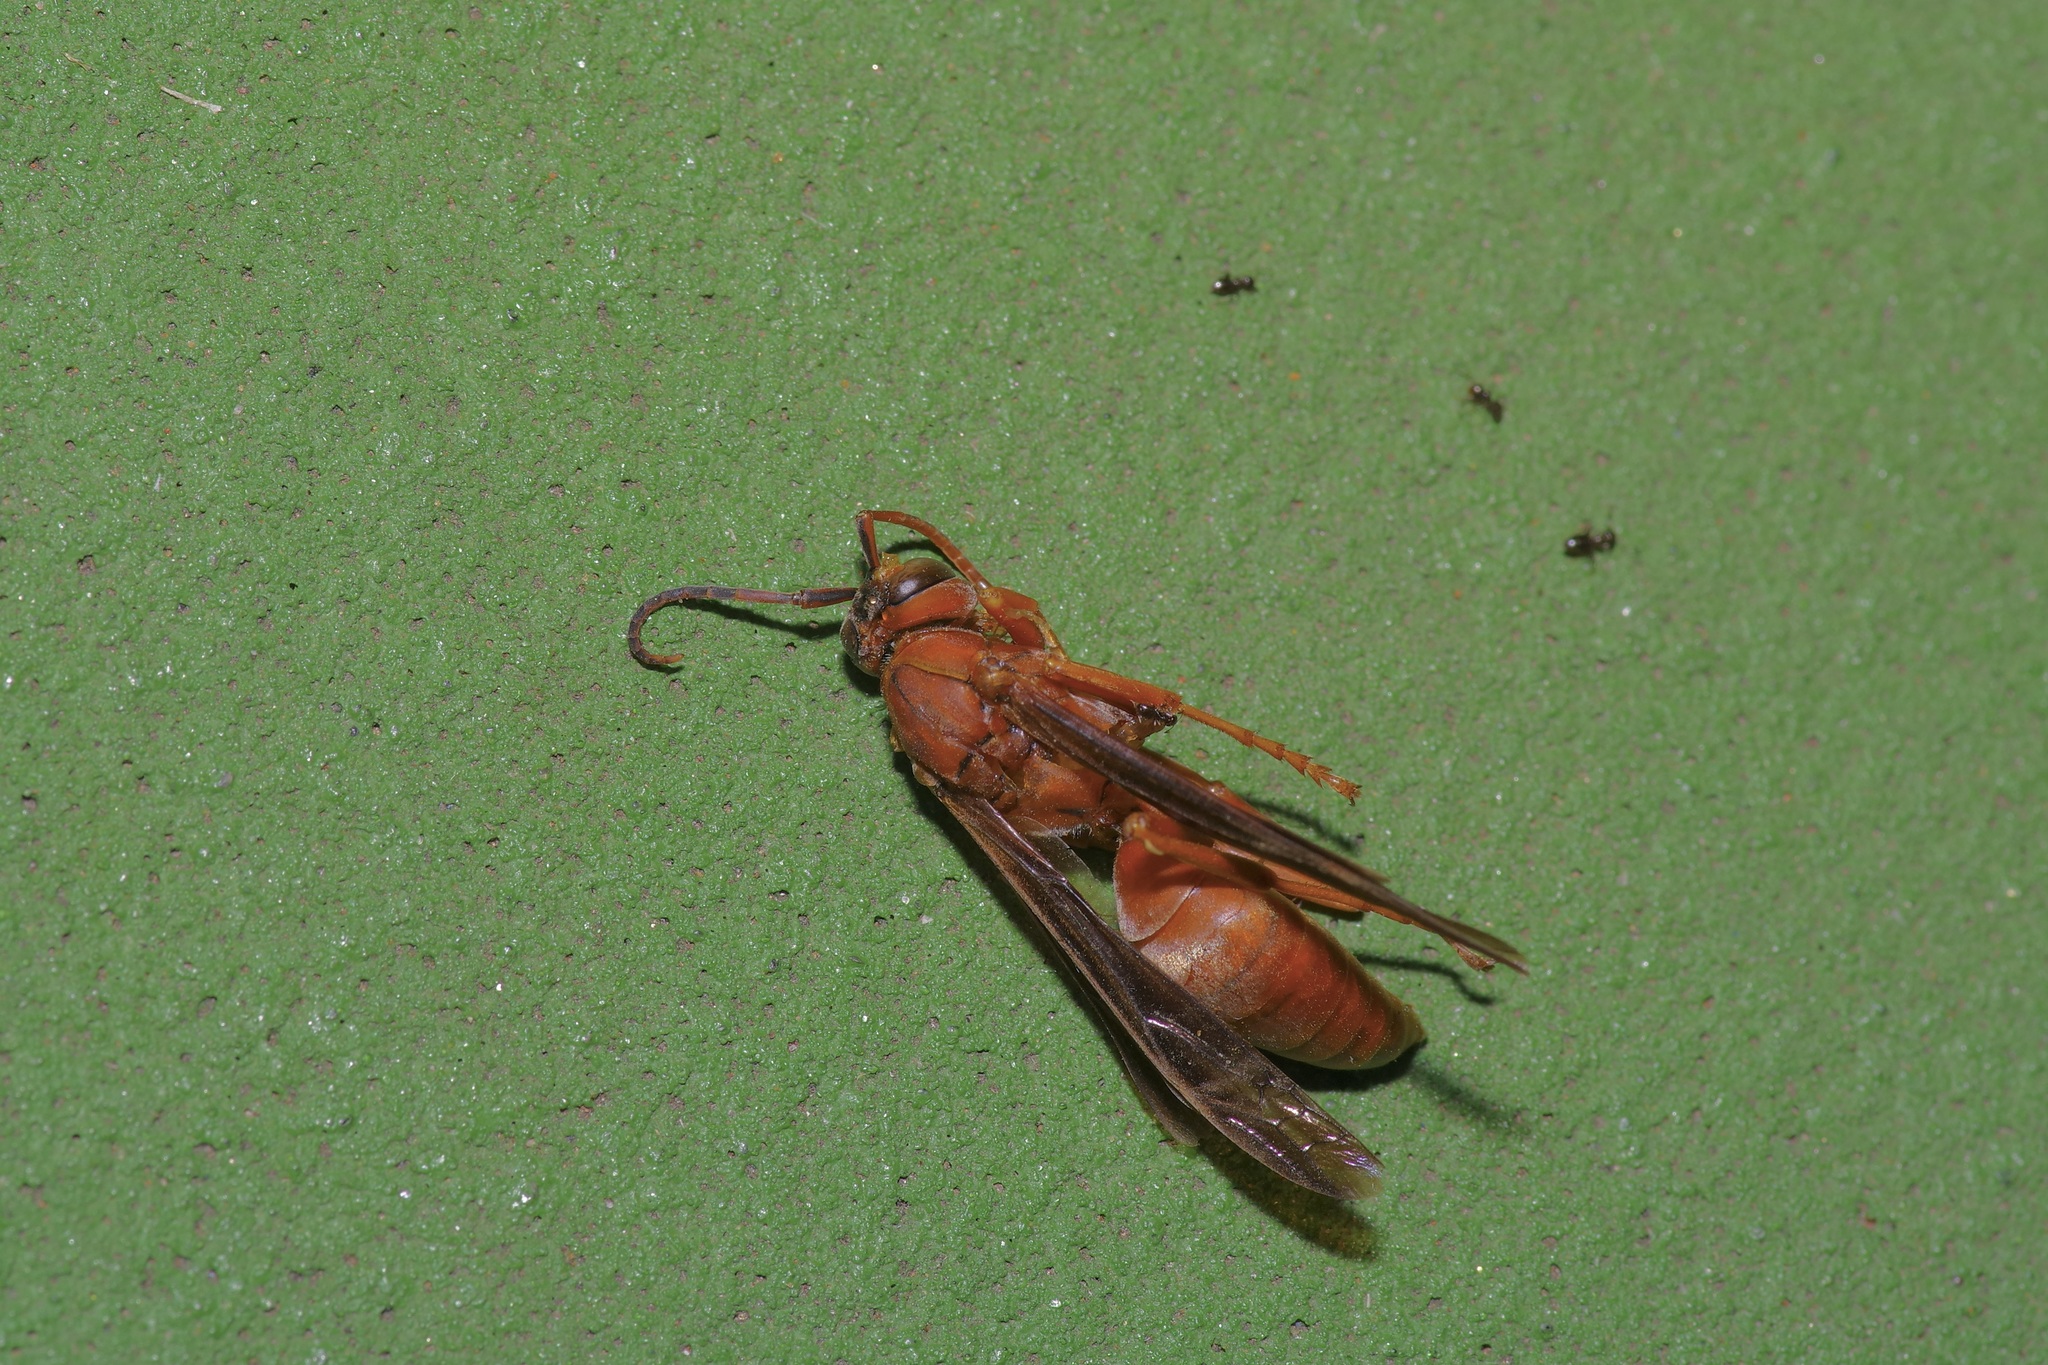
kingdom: Animalia
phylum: Arthropoda
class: Insecta
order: Hymenoptera
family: Vespidae
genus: Fuscopolistes
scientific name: Fuscopolistes
